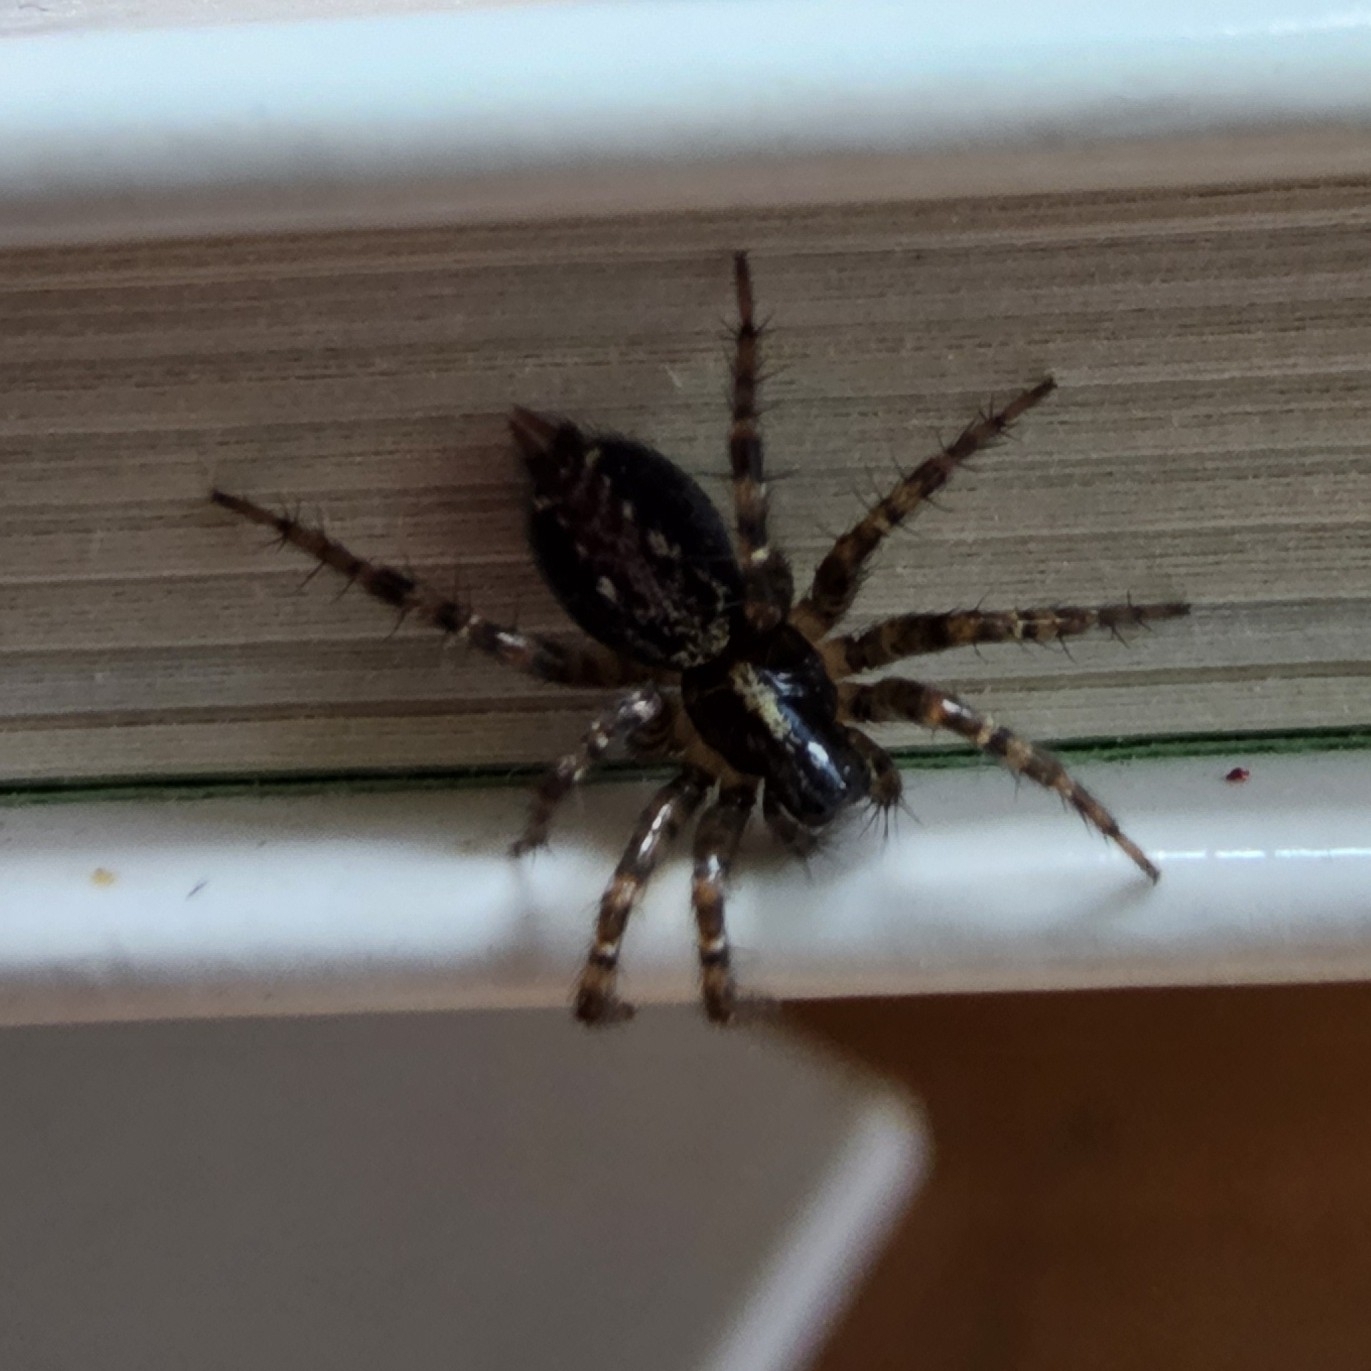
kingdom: Animalia
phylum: Arthropoda
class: Arachnida
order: Araneae
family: Agelenidae
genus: Textrix
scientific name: Textrix denticulata
